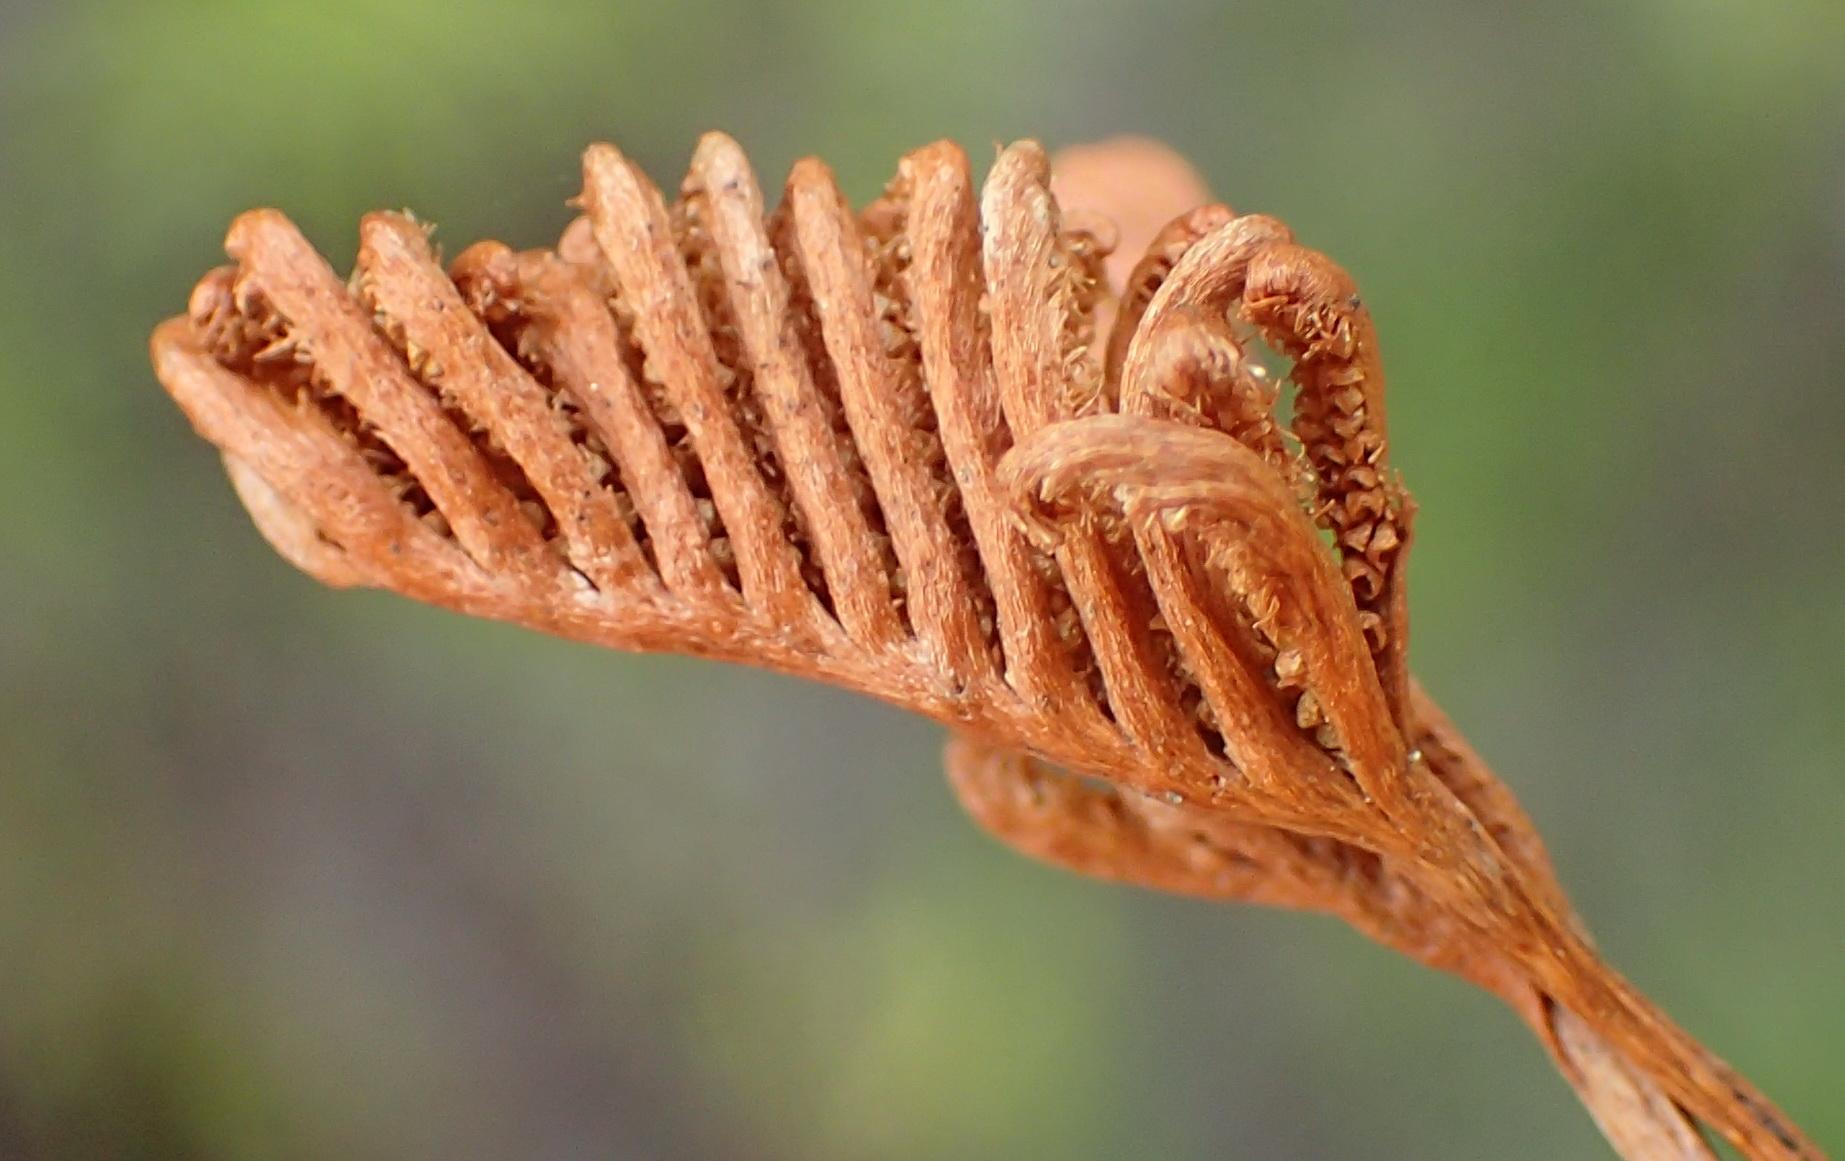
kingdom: Plantae
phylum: Tracheophyta
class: Polypodiopsida
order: Schizaeales
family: Schizaeaceae
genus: Microschizaea
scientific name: Microschizaea tenella
